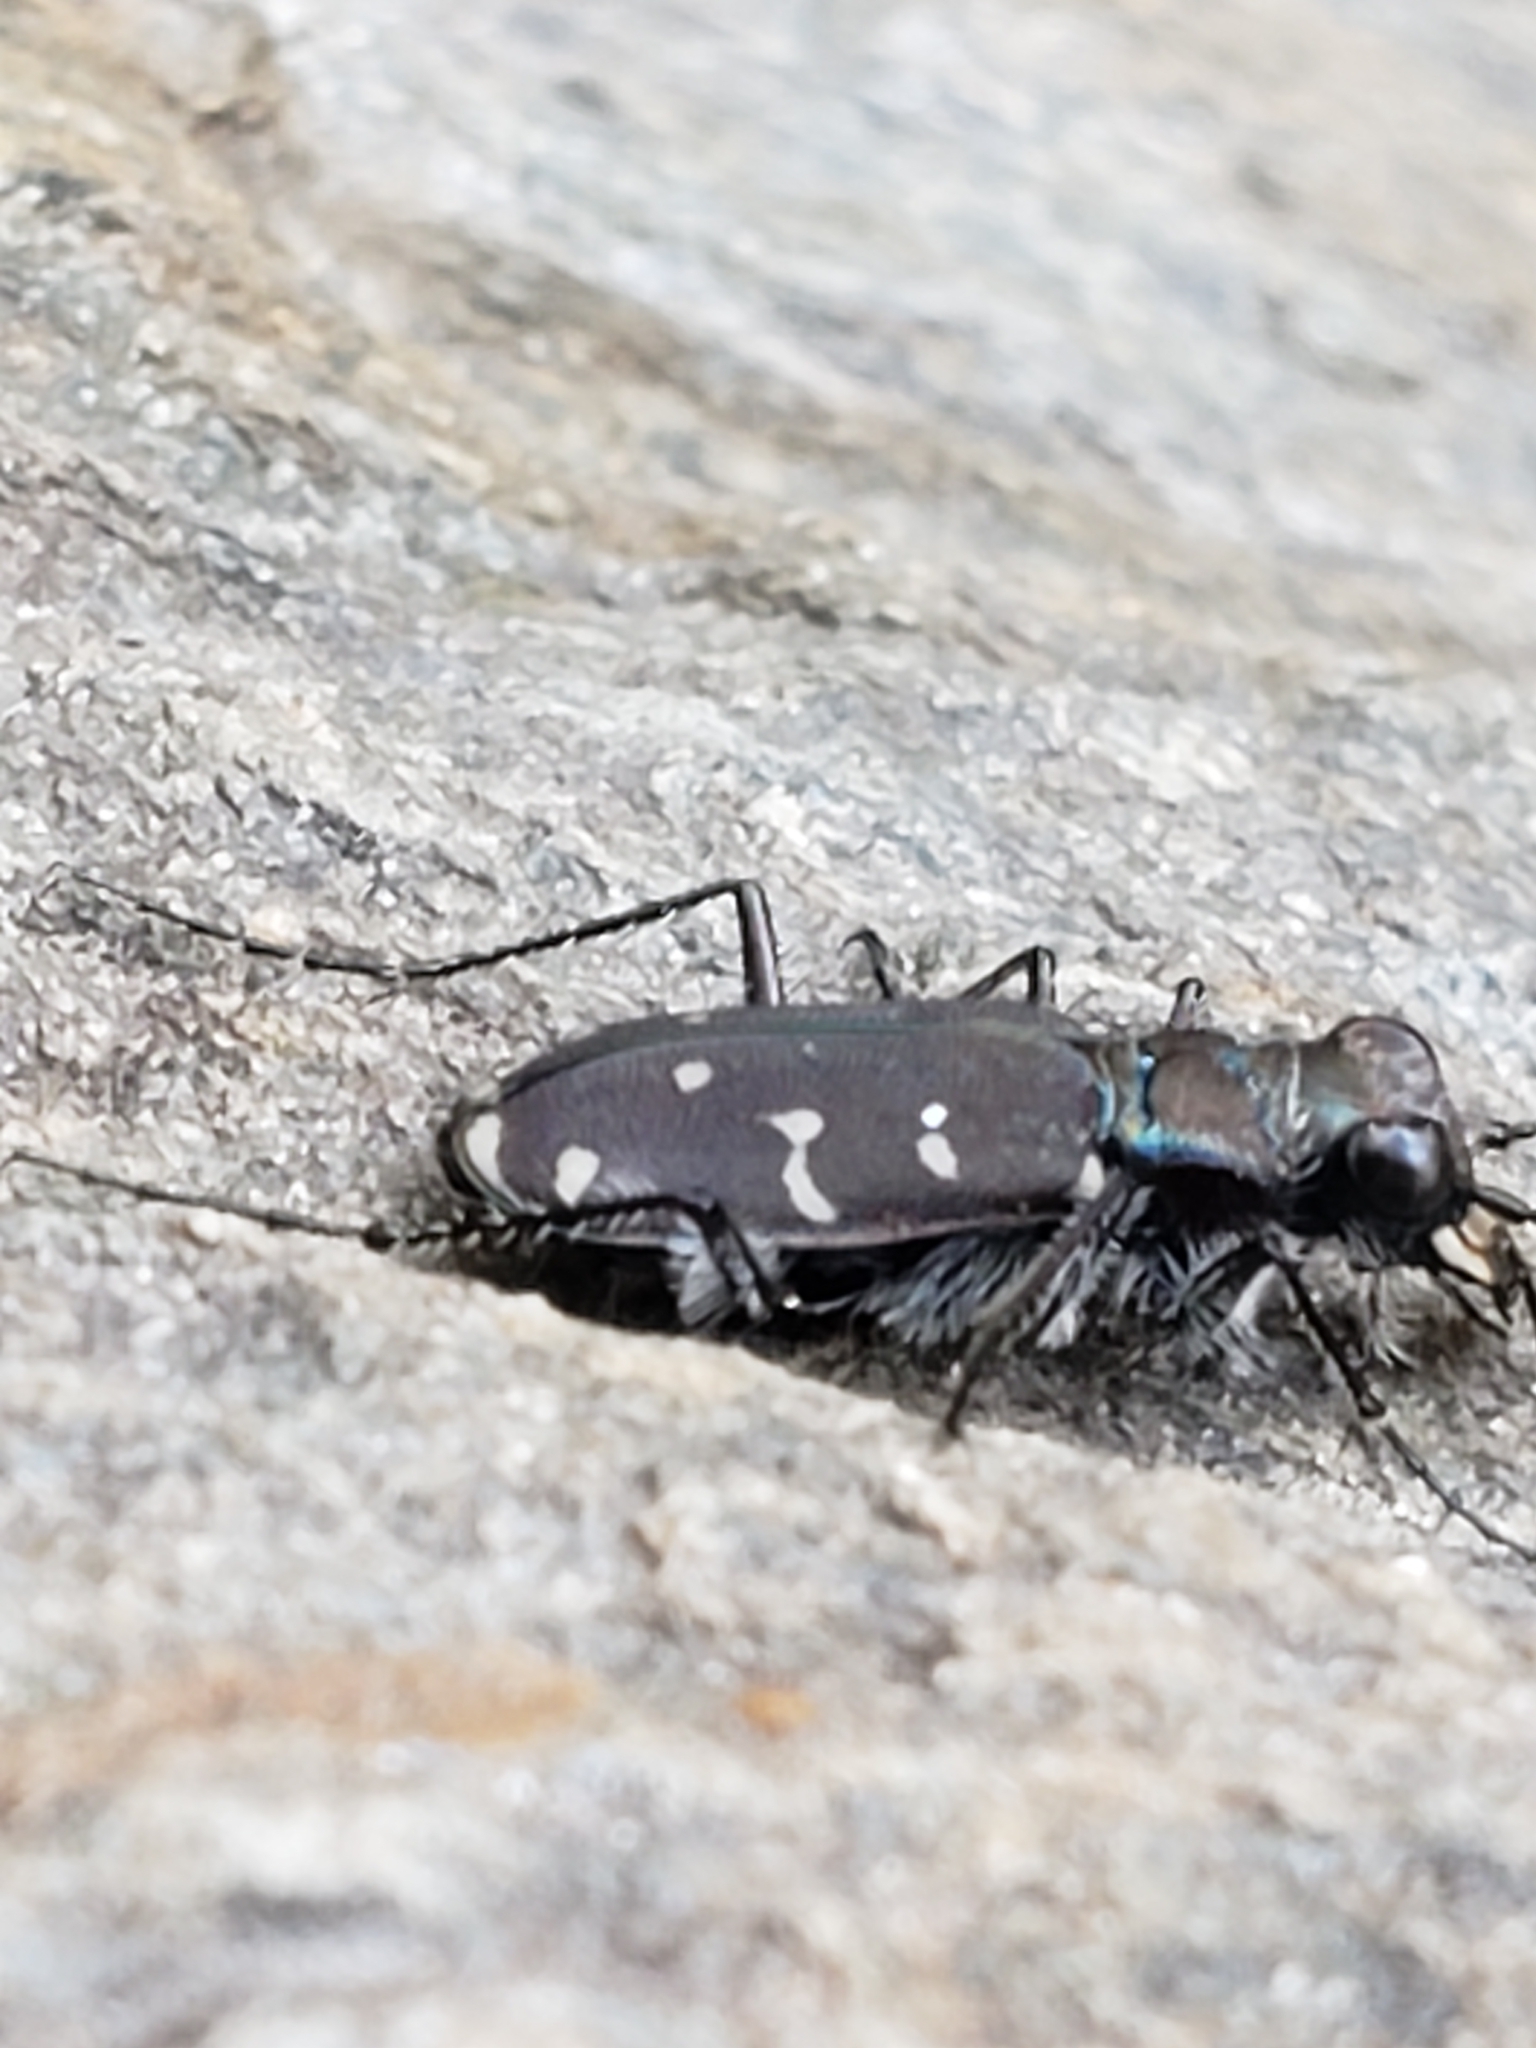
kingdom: Animalia
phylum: Arthropoda
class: Insecta
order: Coleoptera
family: Carabidae
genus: Cicindela
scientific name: Cicindela duodecimguttata
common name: Twelve-spotted tiger beetle
